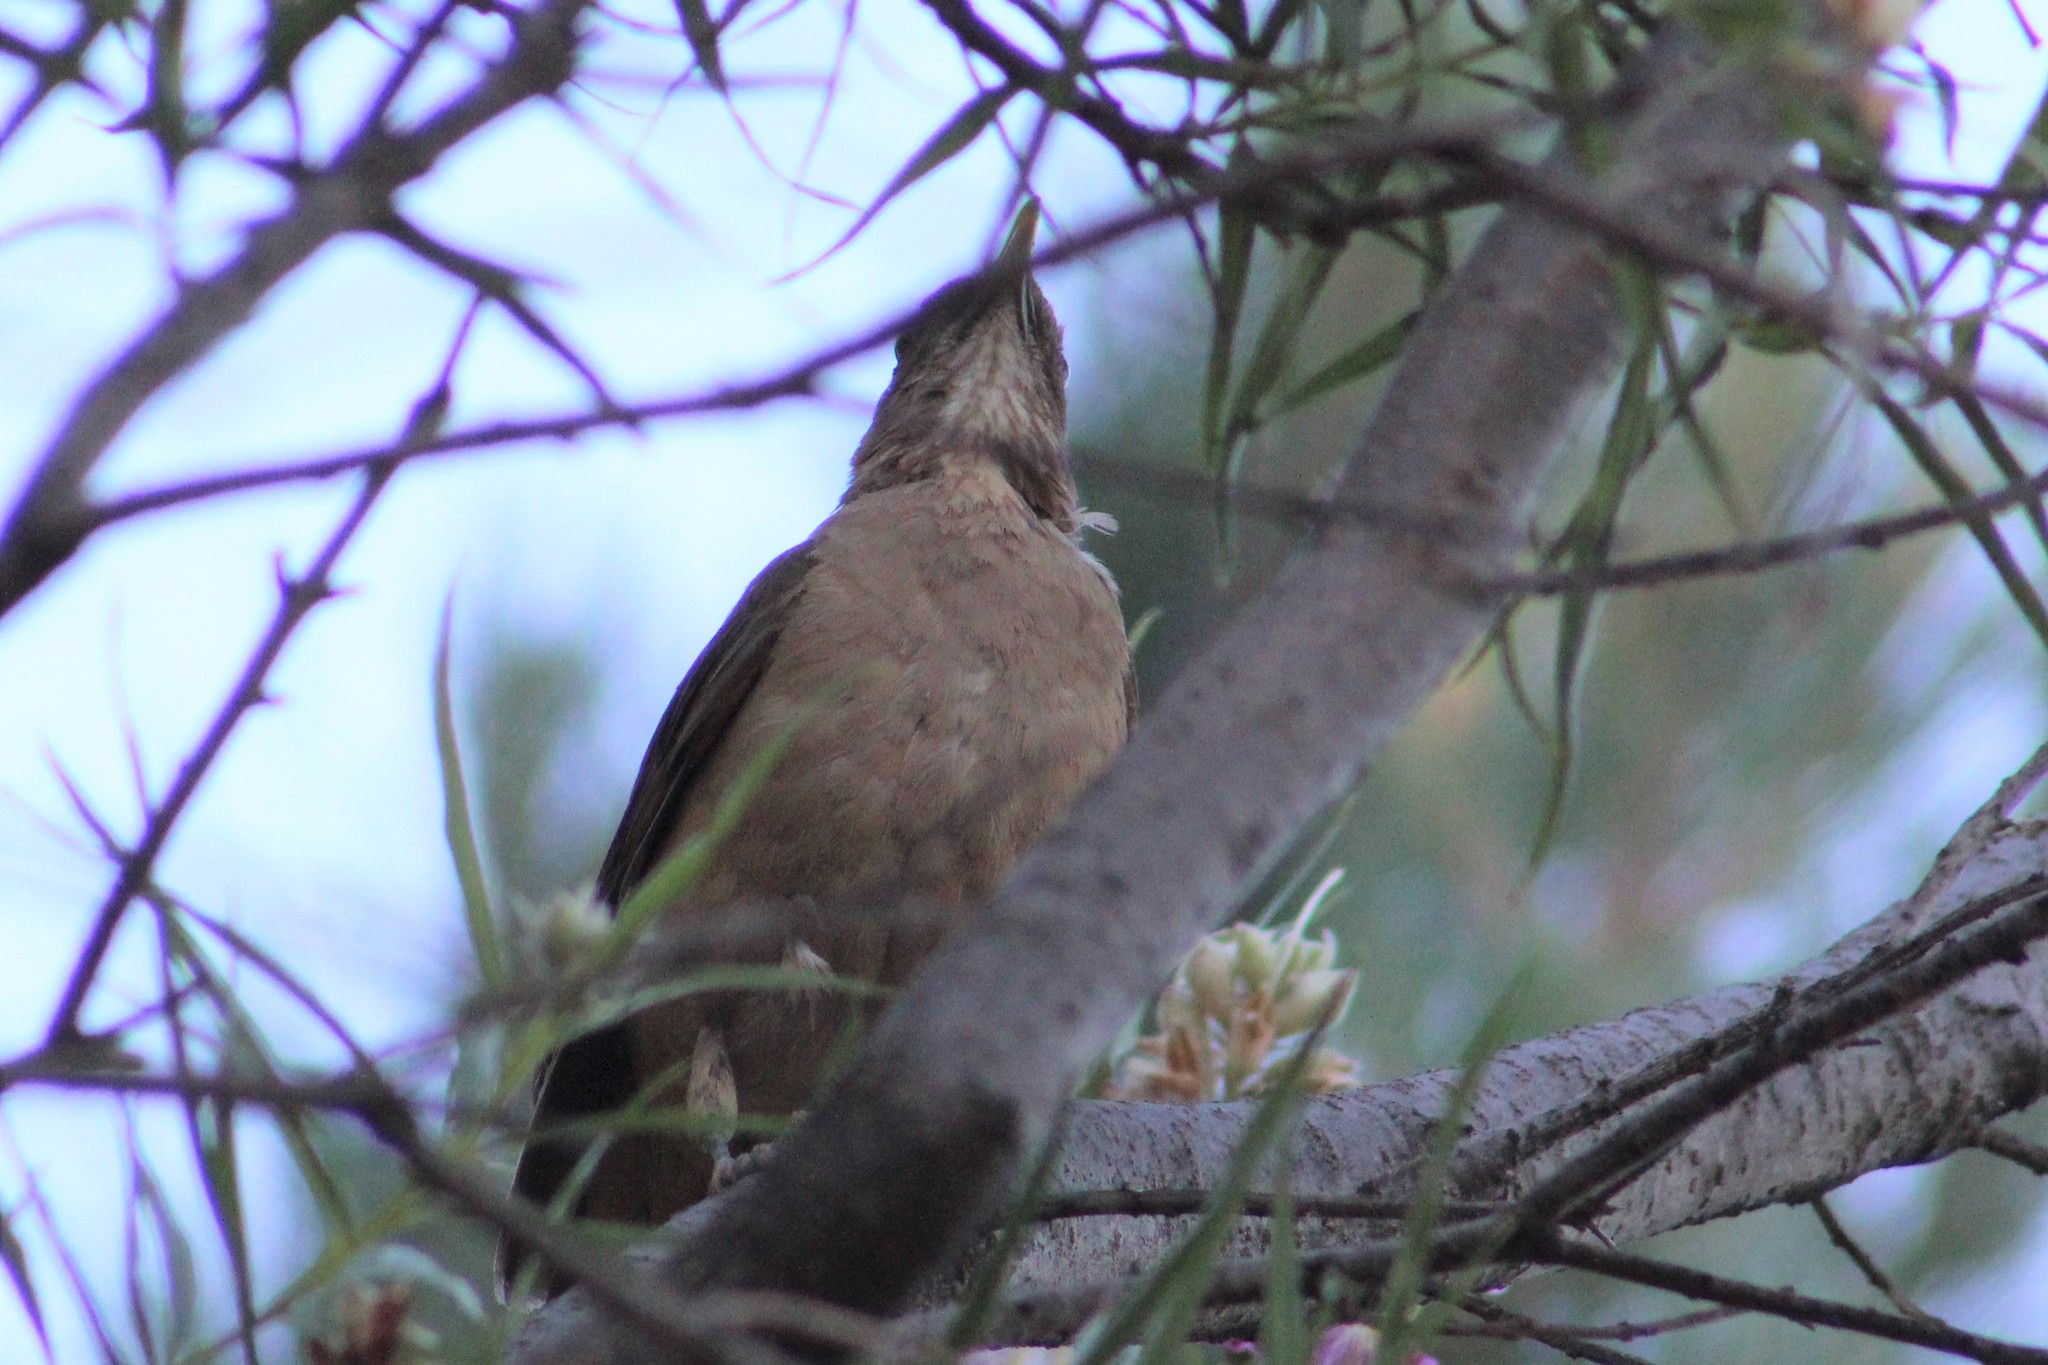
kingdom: Animalia
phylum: Chordata
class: Aves
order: Passeriformes
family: Turdidae
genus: Turdus
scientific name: Turdus grayi
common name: Clay-colored thrush
